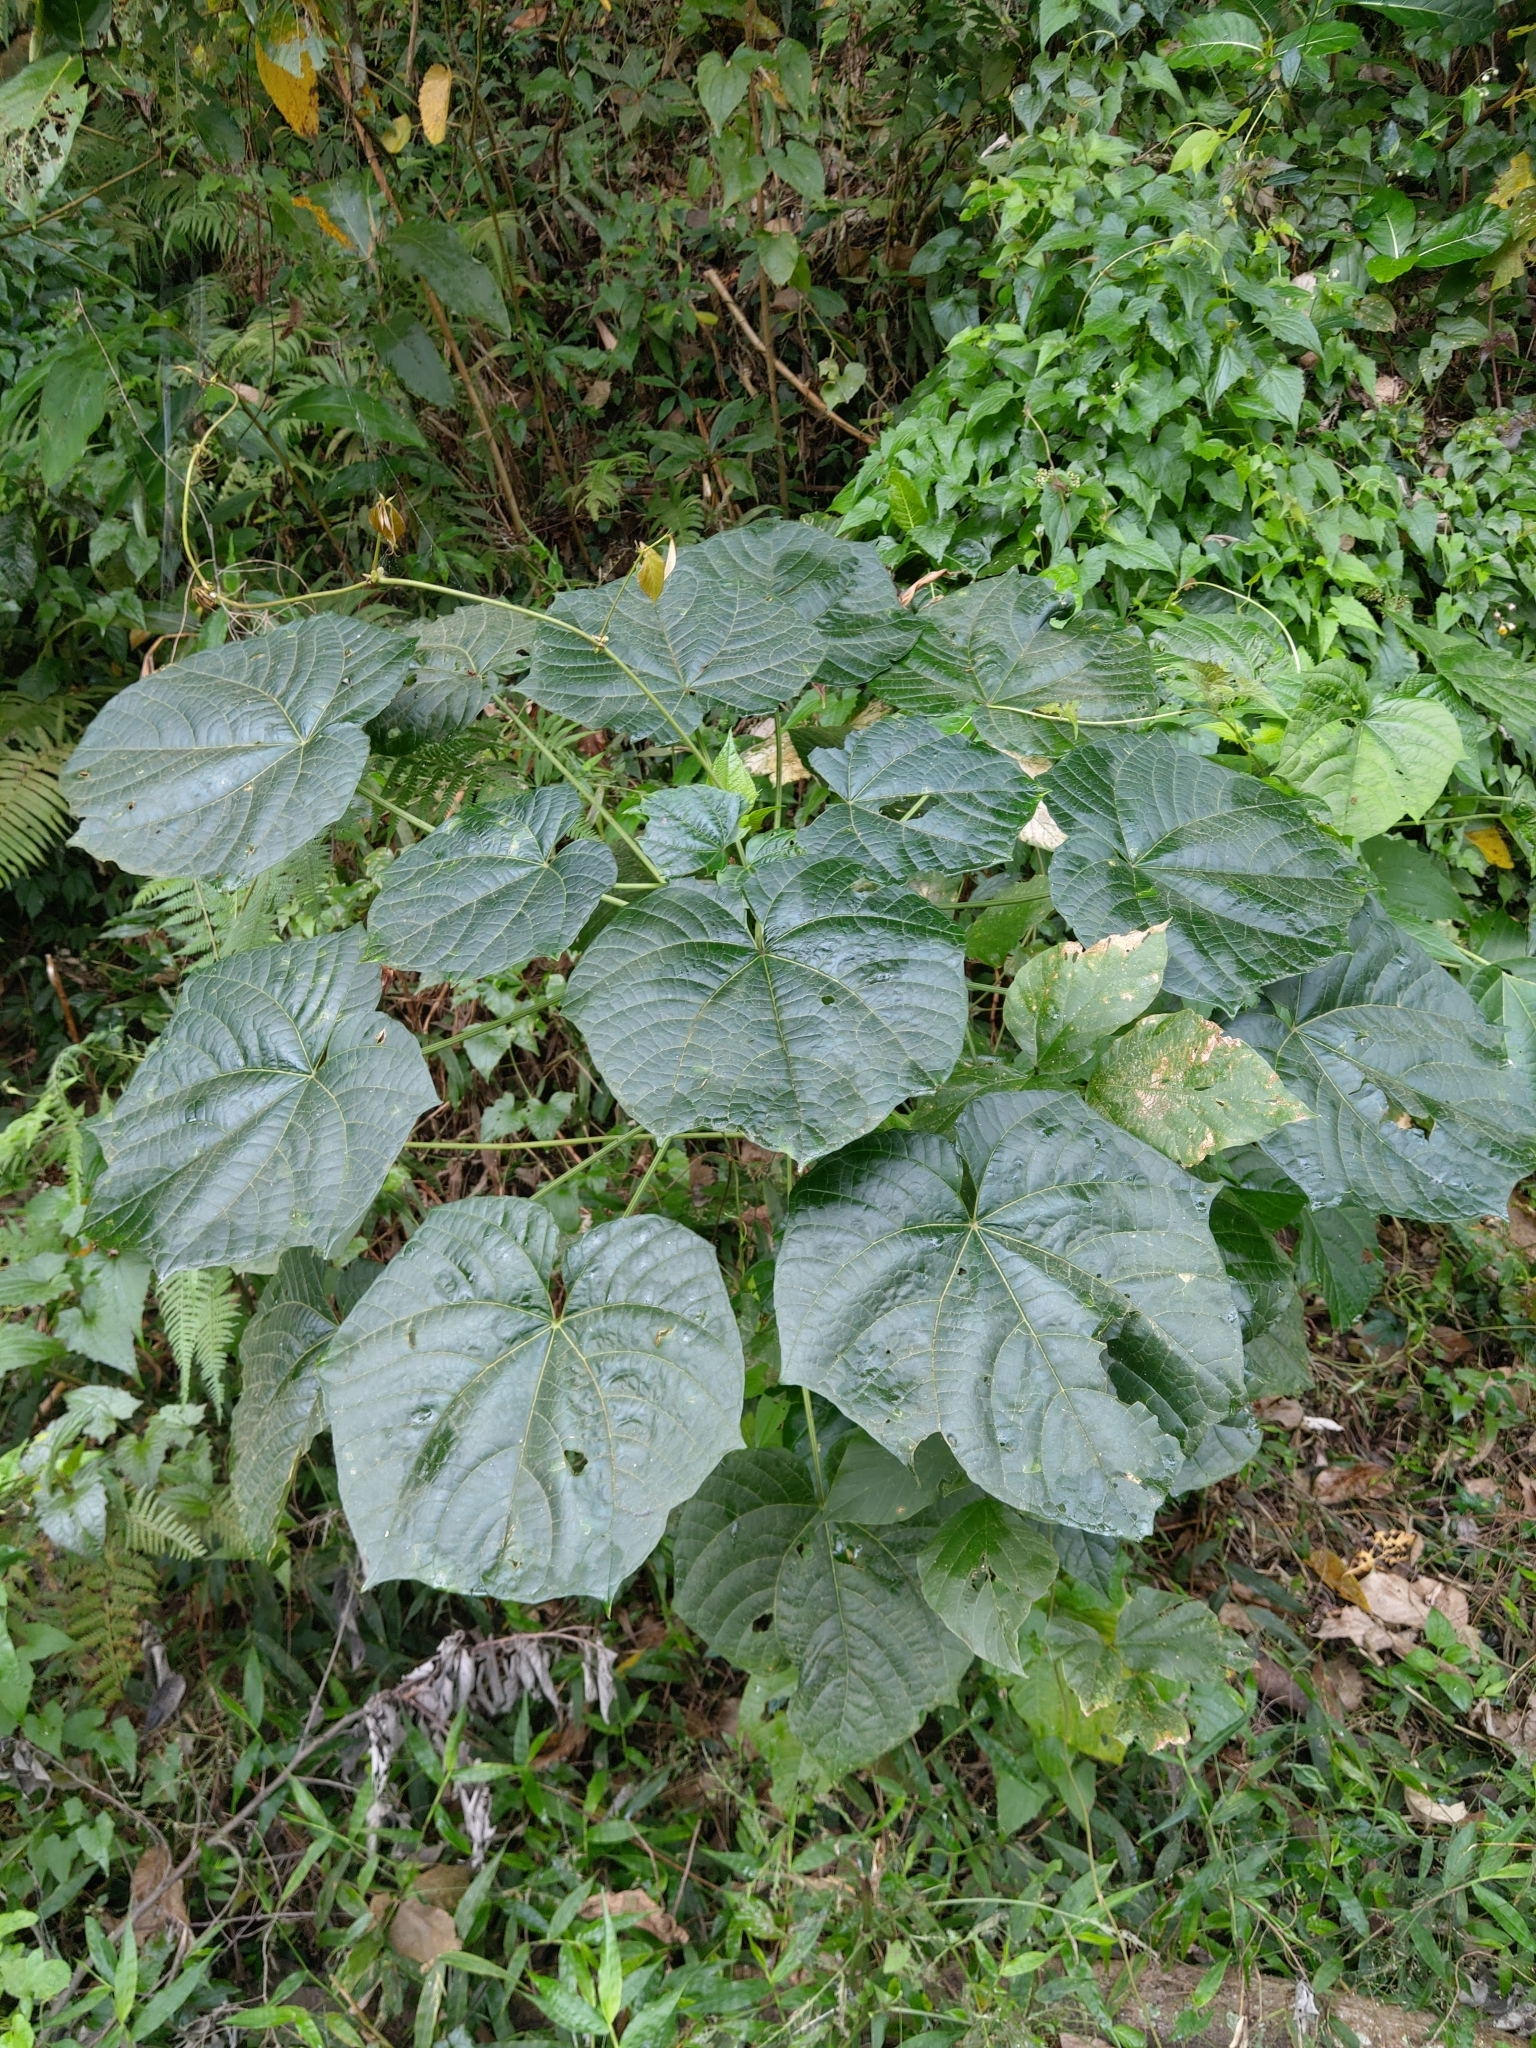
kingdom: Plantae
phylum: Tracheophyta
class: Magnoliopsida
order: Lamiales
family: Lamiaceae
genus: Clerodendrum
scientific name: Clerodendrum japonicum
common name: Japanese glorybower
